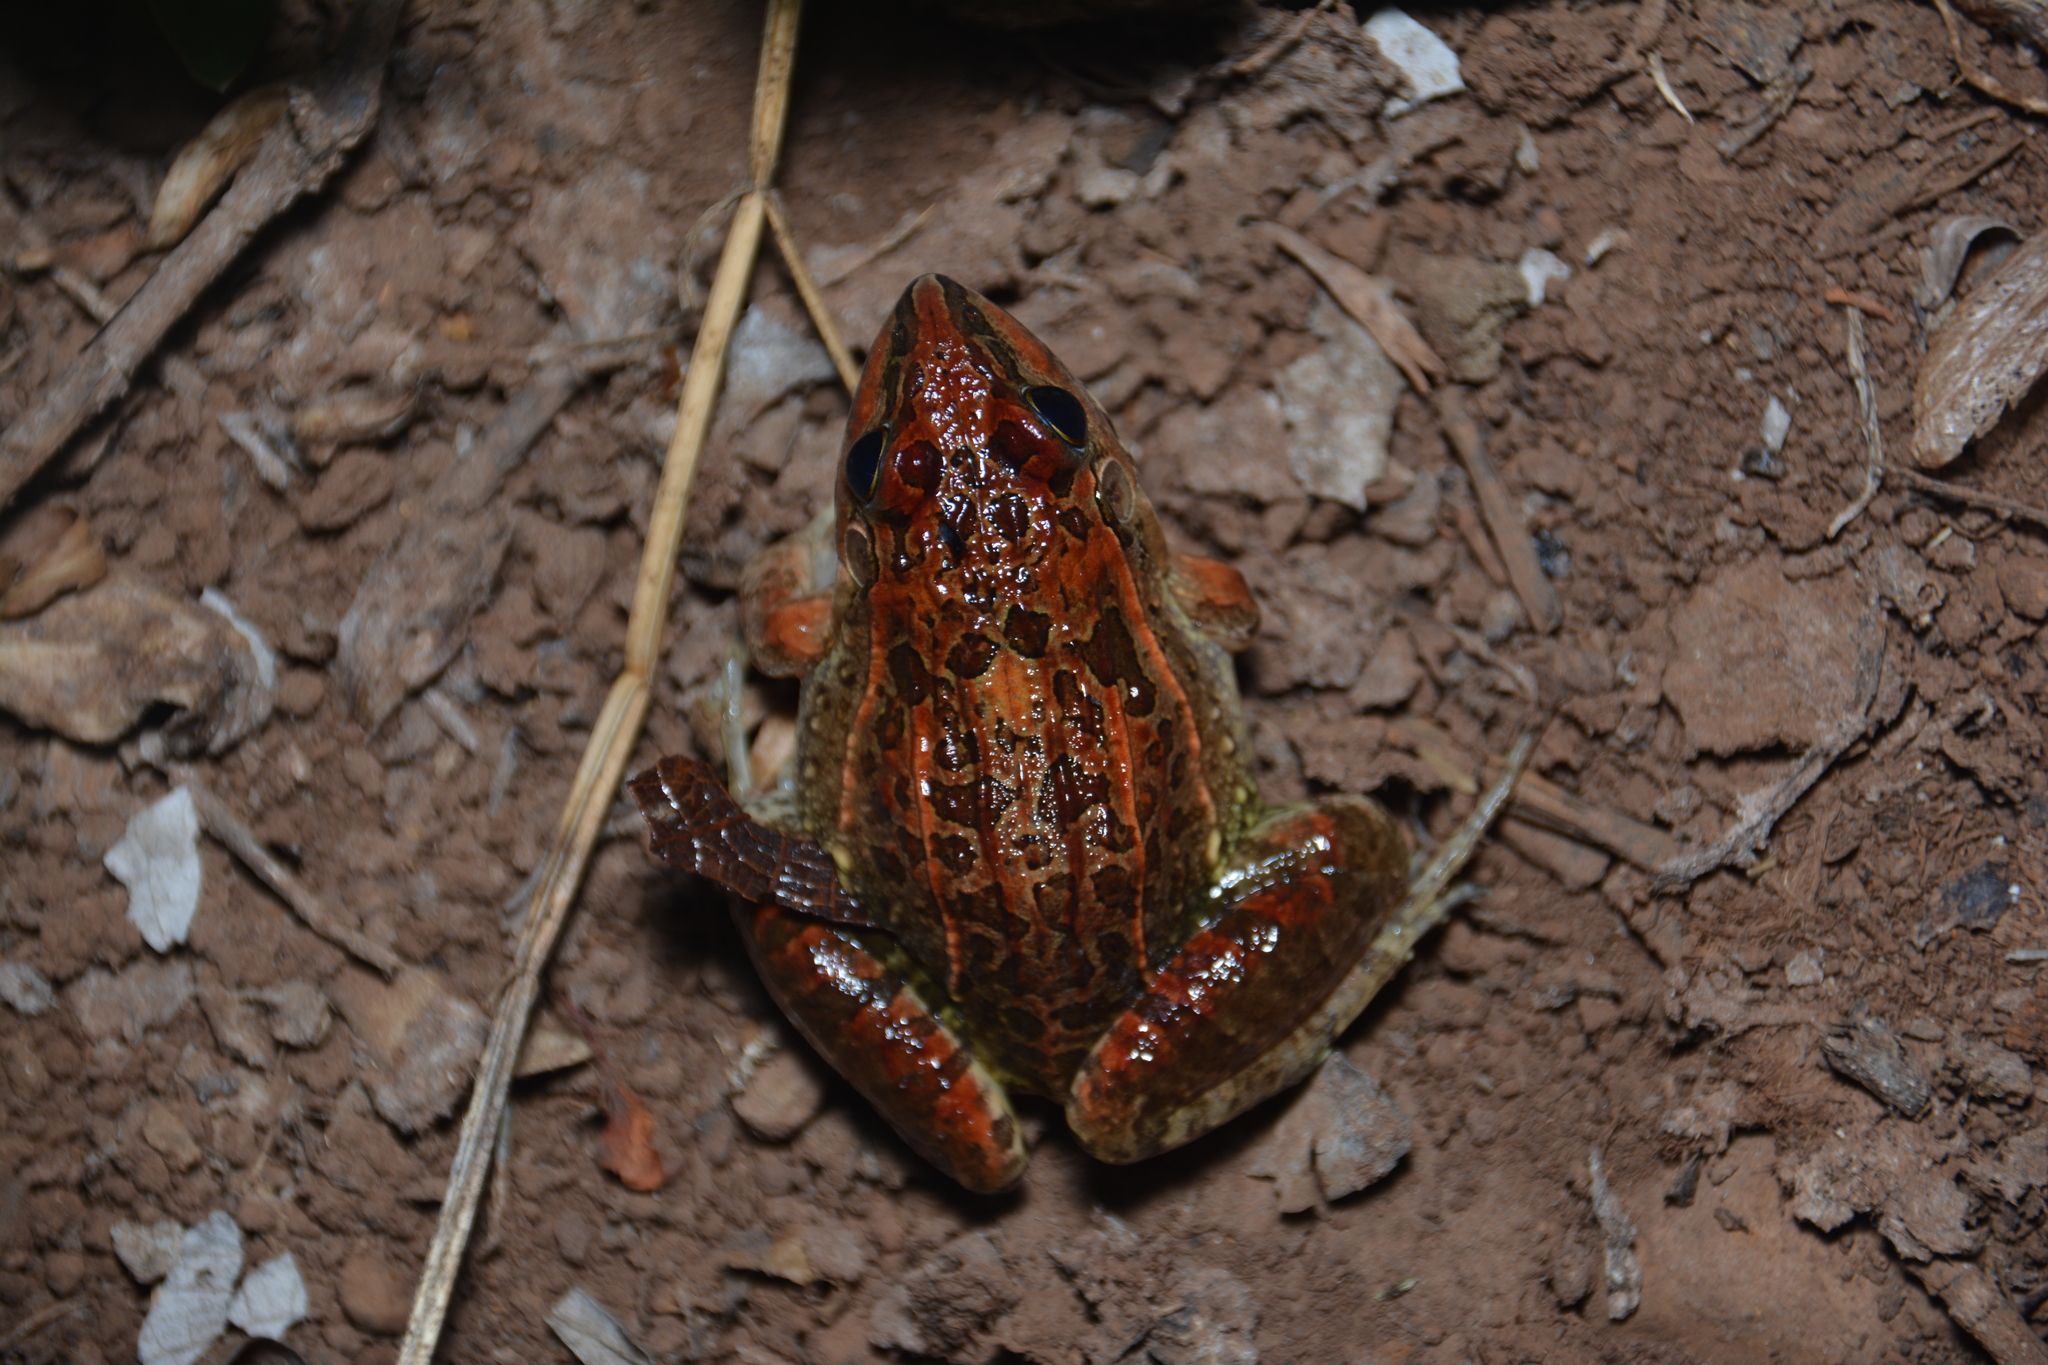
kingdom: Animalia
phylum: Chordata
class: Amphibia
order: Anura
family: Leptodactylidae
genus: Leptodactylus
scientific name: Leptodactylus fuscus
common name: Rufous frog
